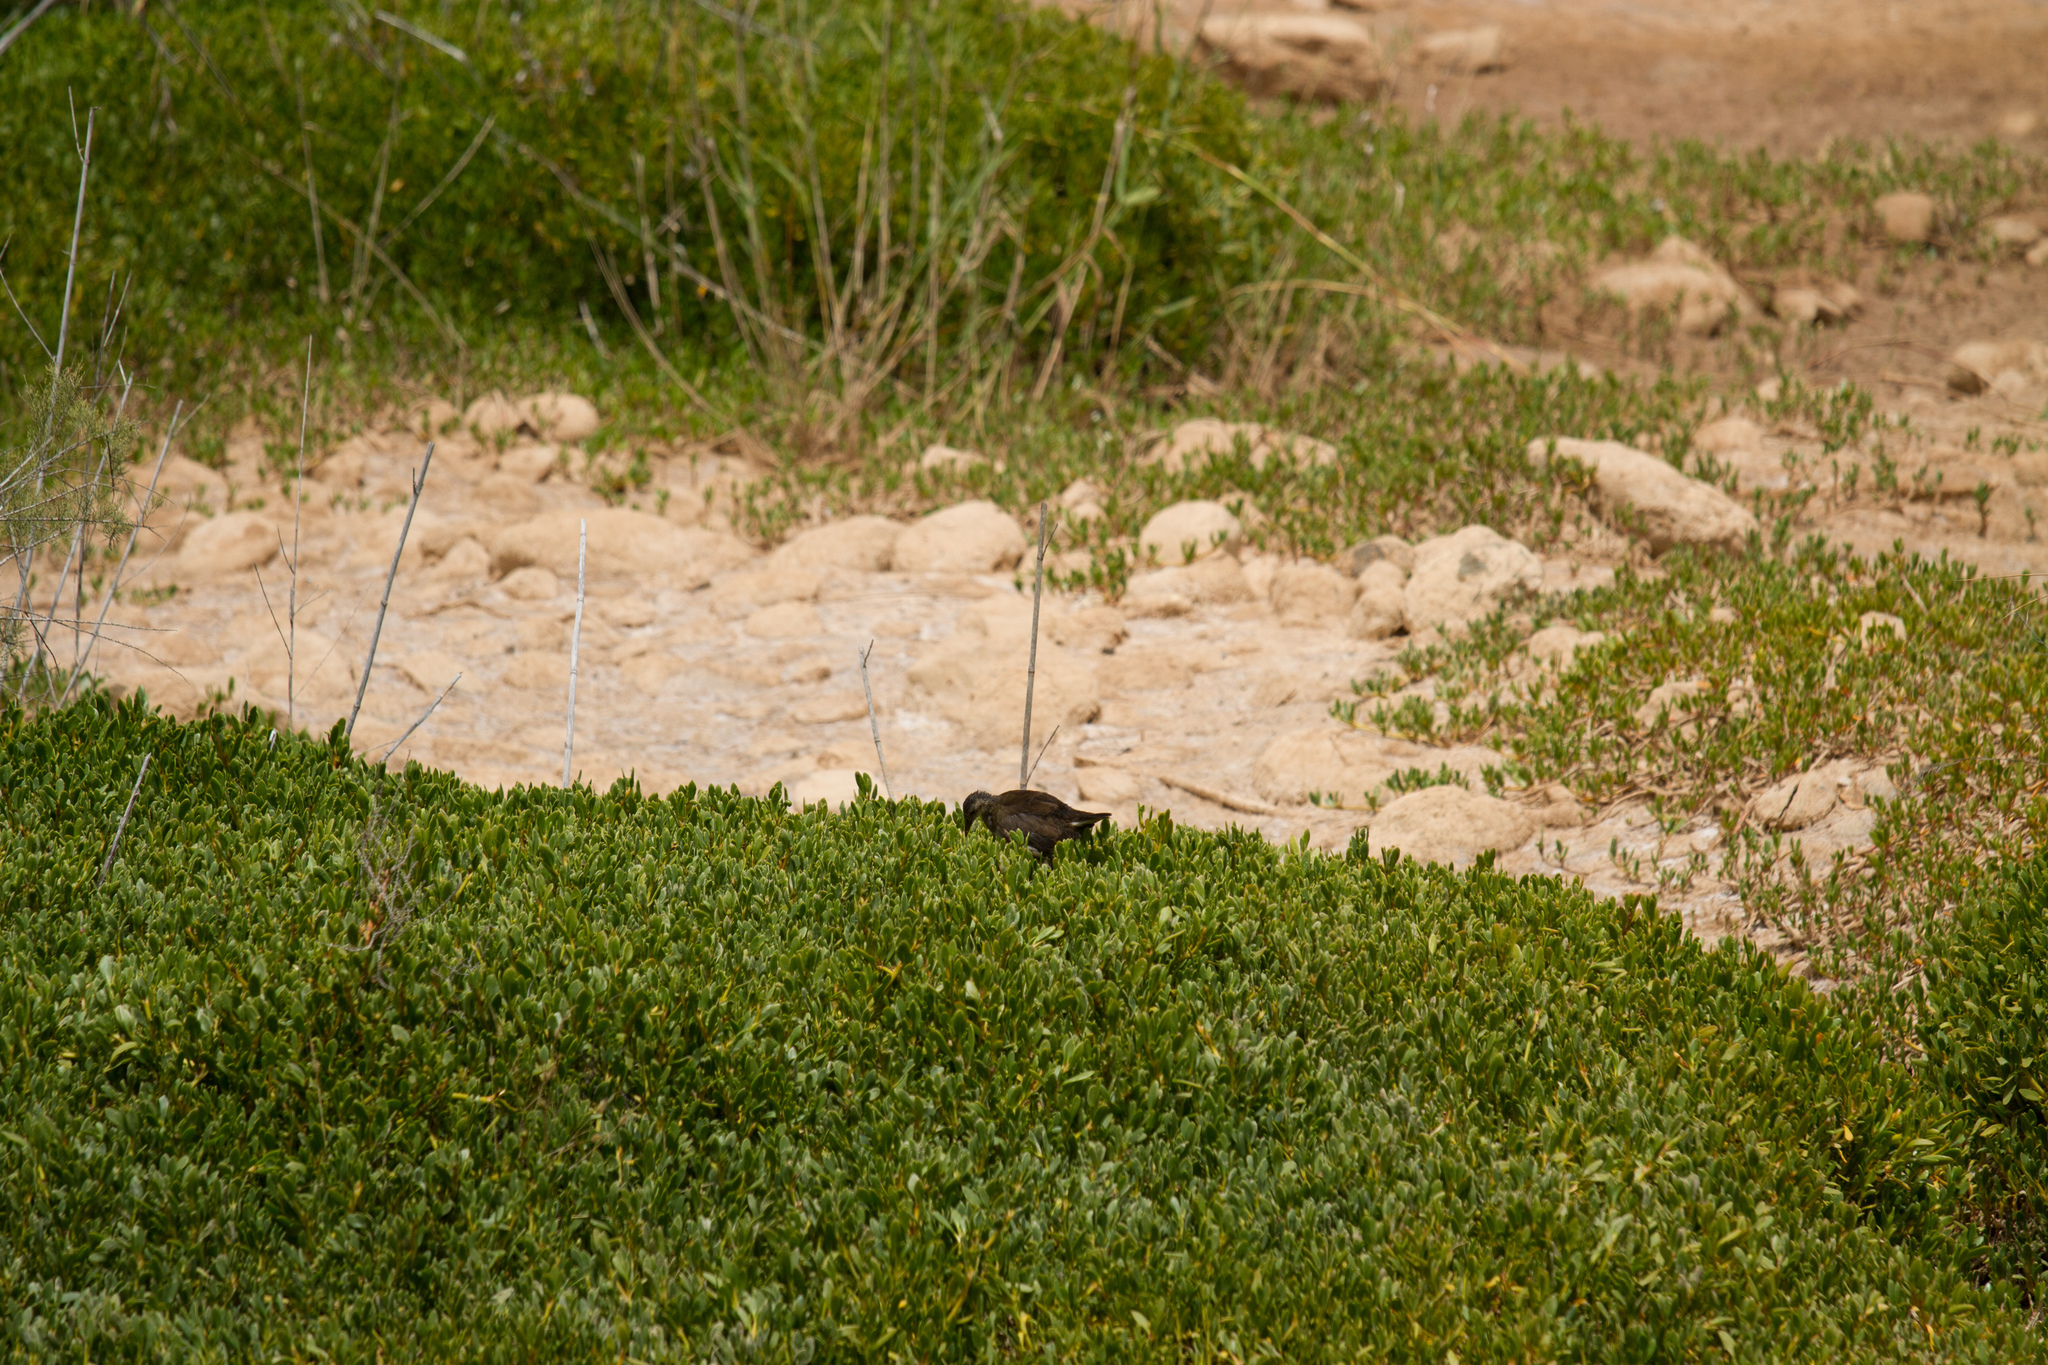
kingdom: Animalia
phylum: Chordata
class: Aves
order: Gruiformes
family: Rallidae
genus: Gallinula
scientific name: Gallinula chloropus
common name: Common moorhen
